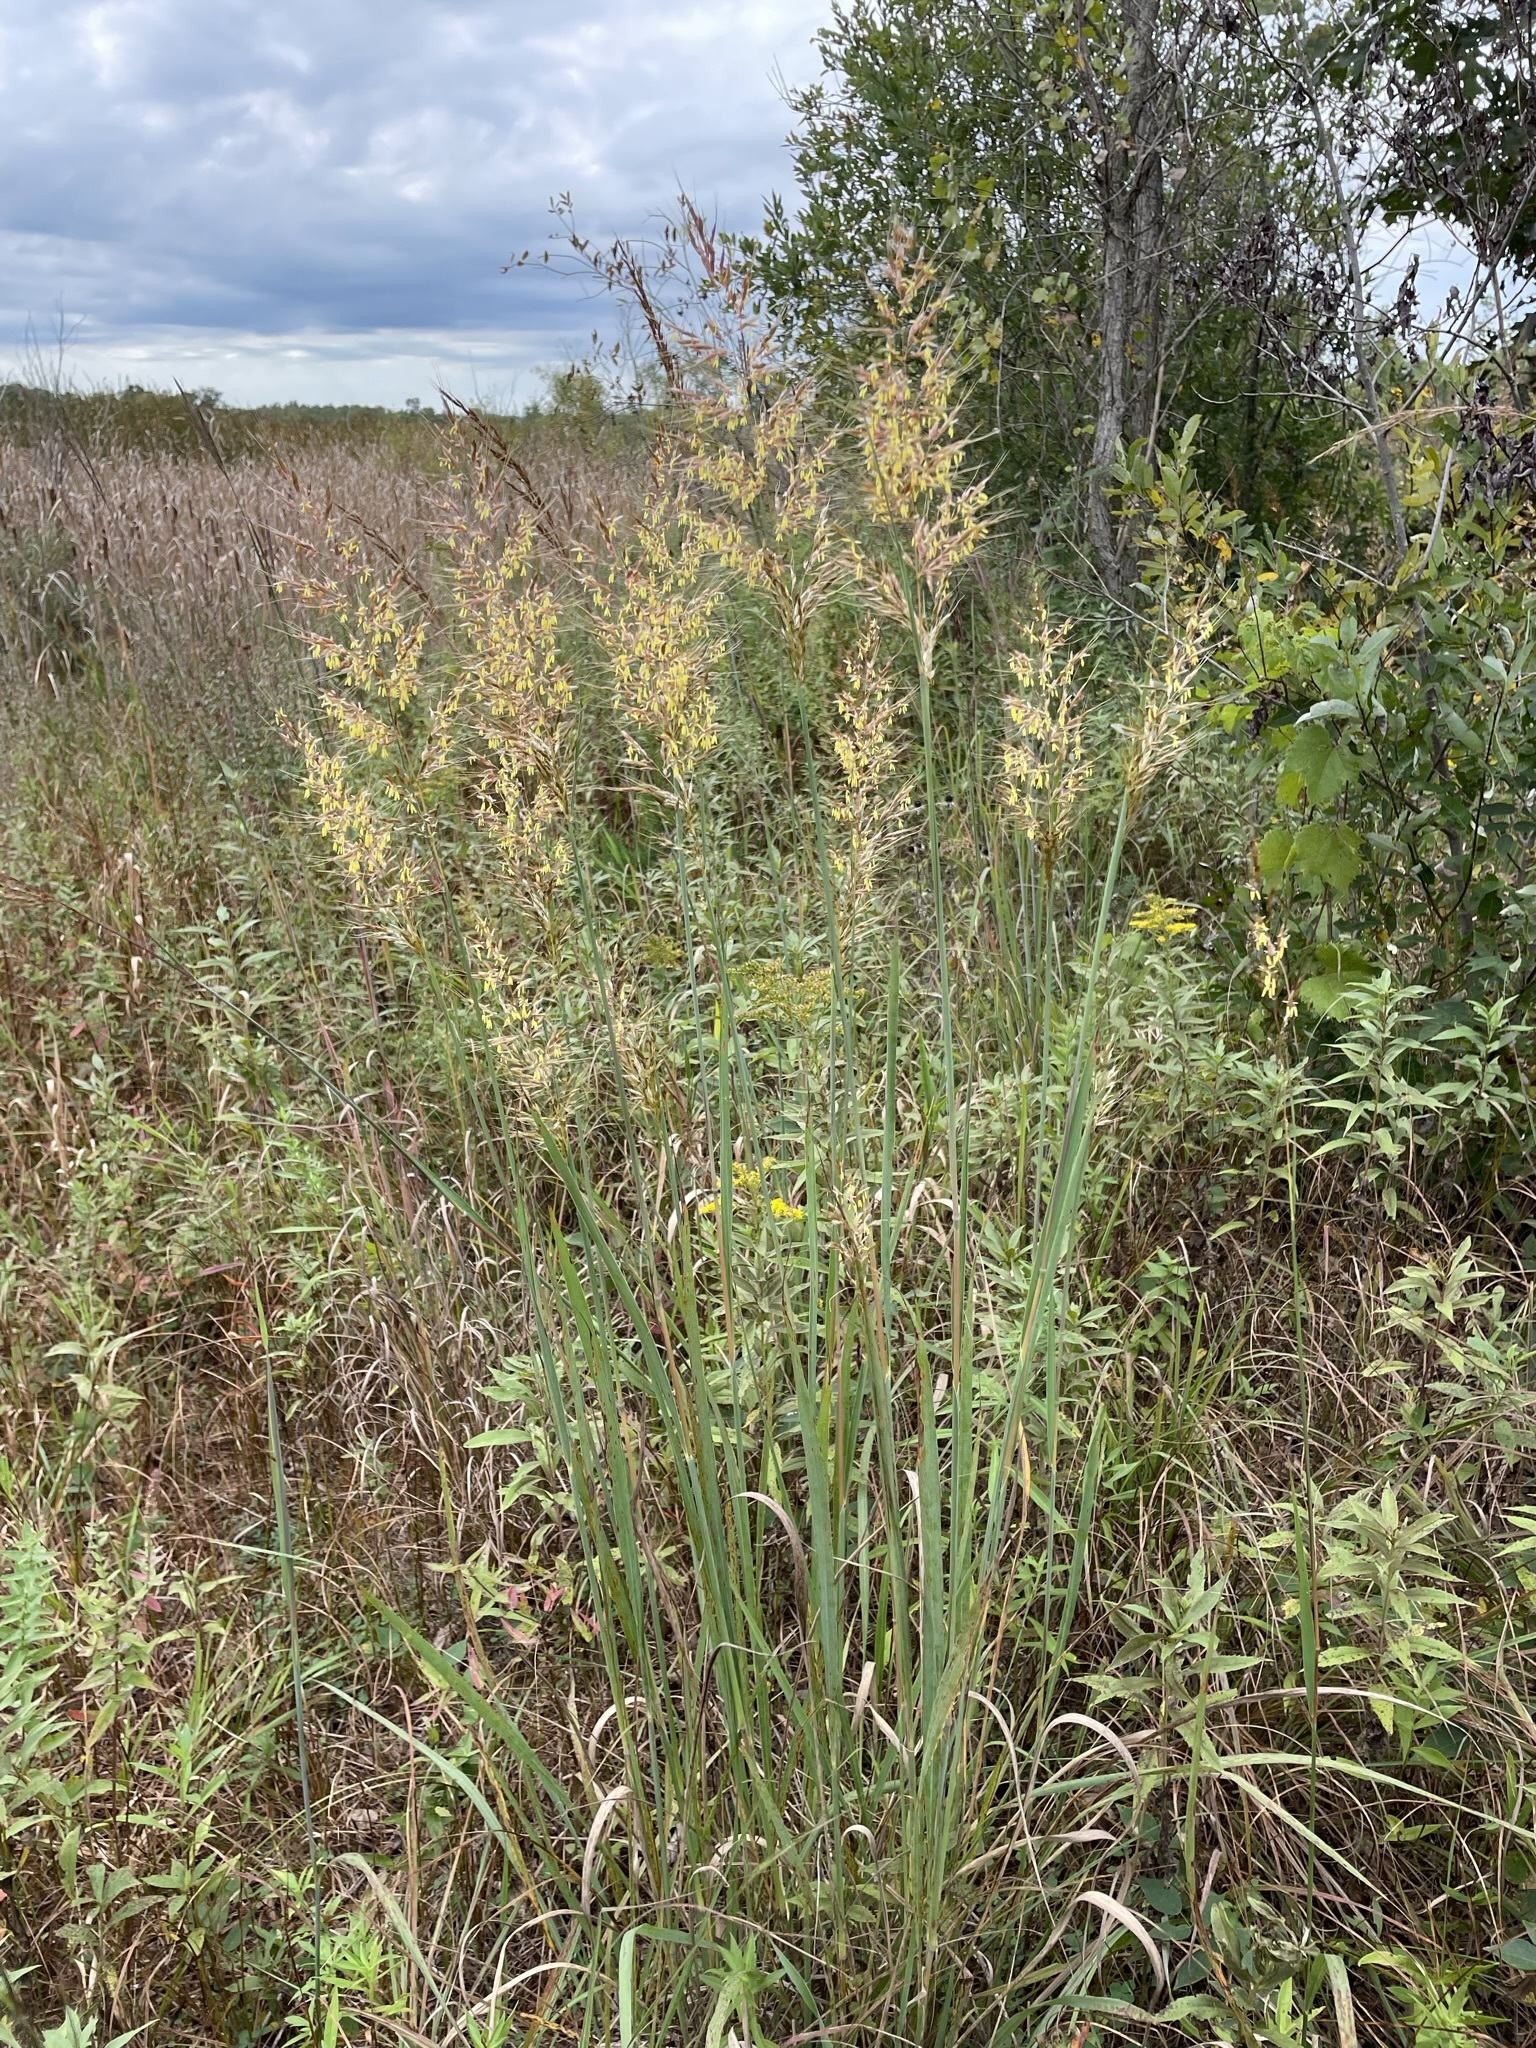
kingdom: Plantae
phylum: Tracheophyta
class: Liliopsida
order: Poales
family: Poaceae
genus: Sorghastrum
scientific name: Sorghastrum nutans
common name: Indian grass
